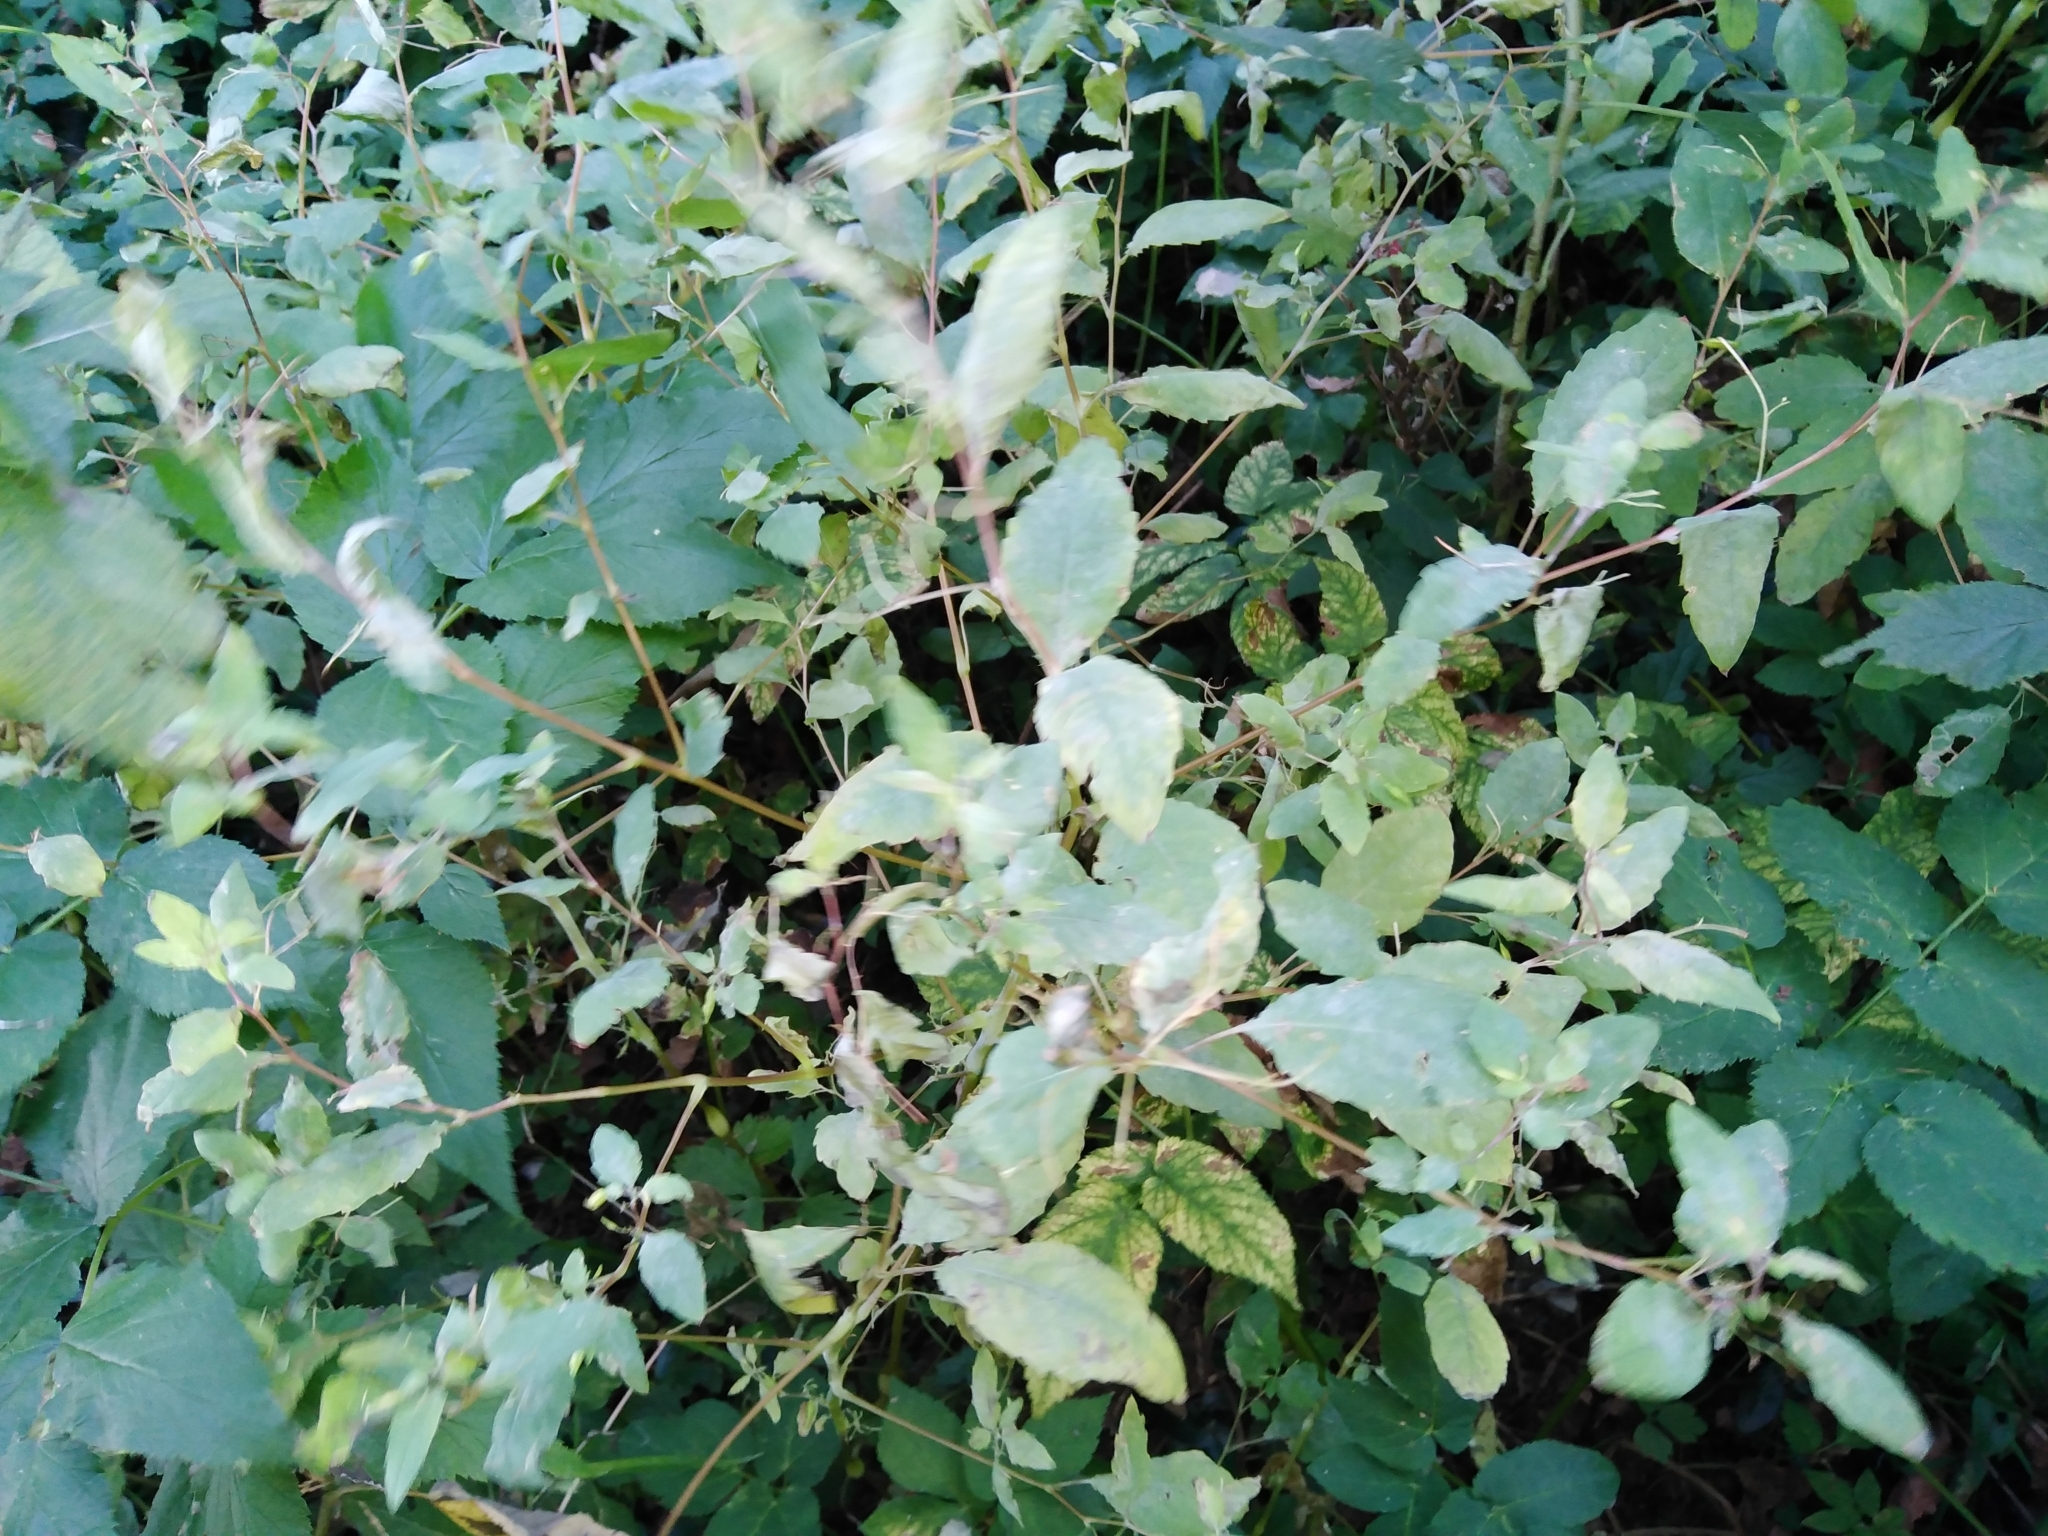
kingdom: Plantae
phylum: Tracheophyta
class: Magnoliopsida
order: Ericales
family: Balsaminaceae
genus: Impatiens
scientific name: Impatiens noli-tangere
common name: Touch-me-not balsam
